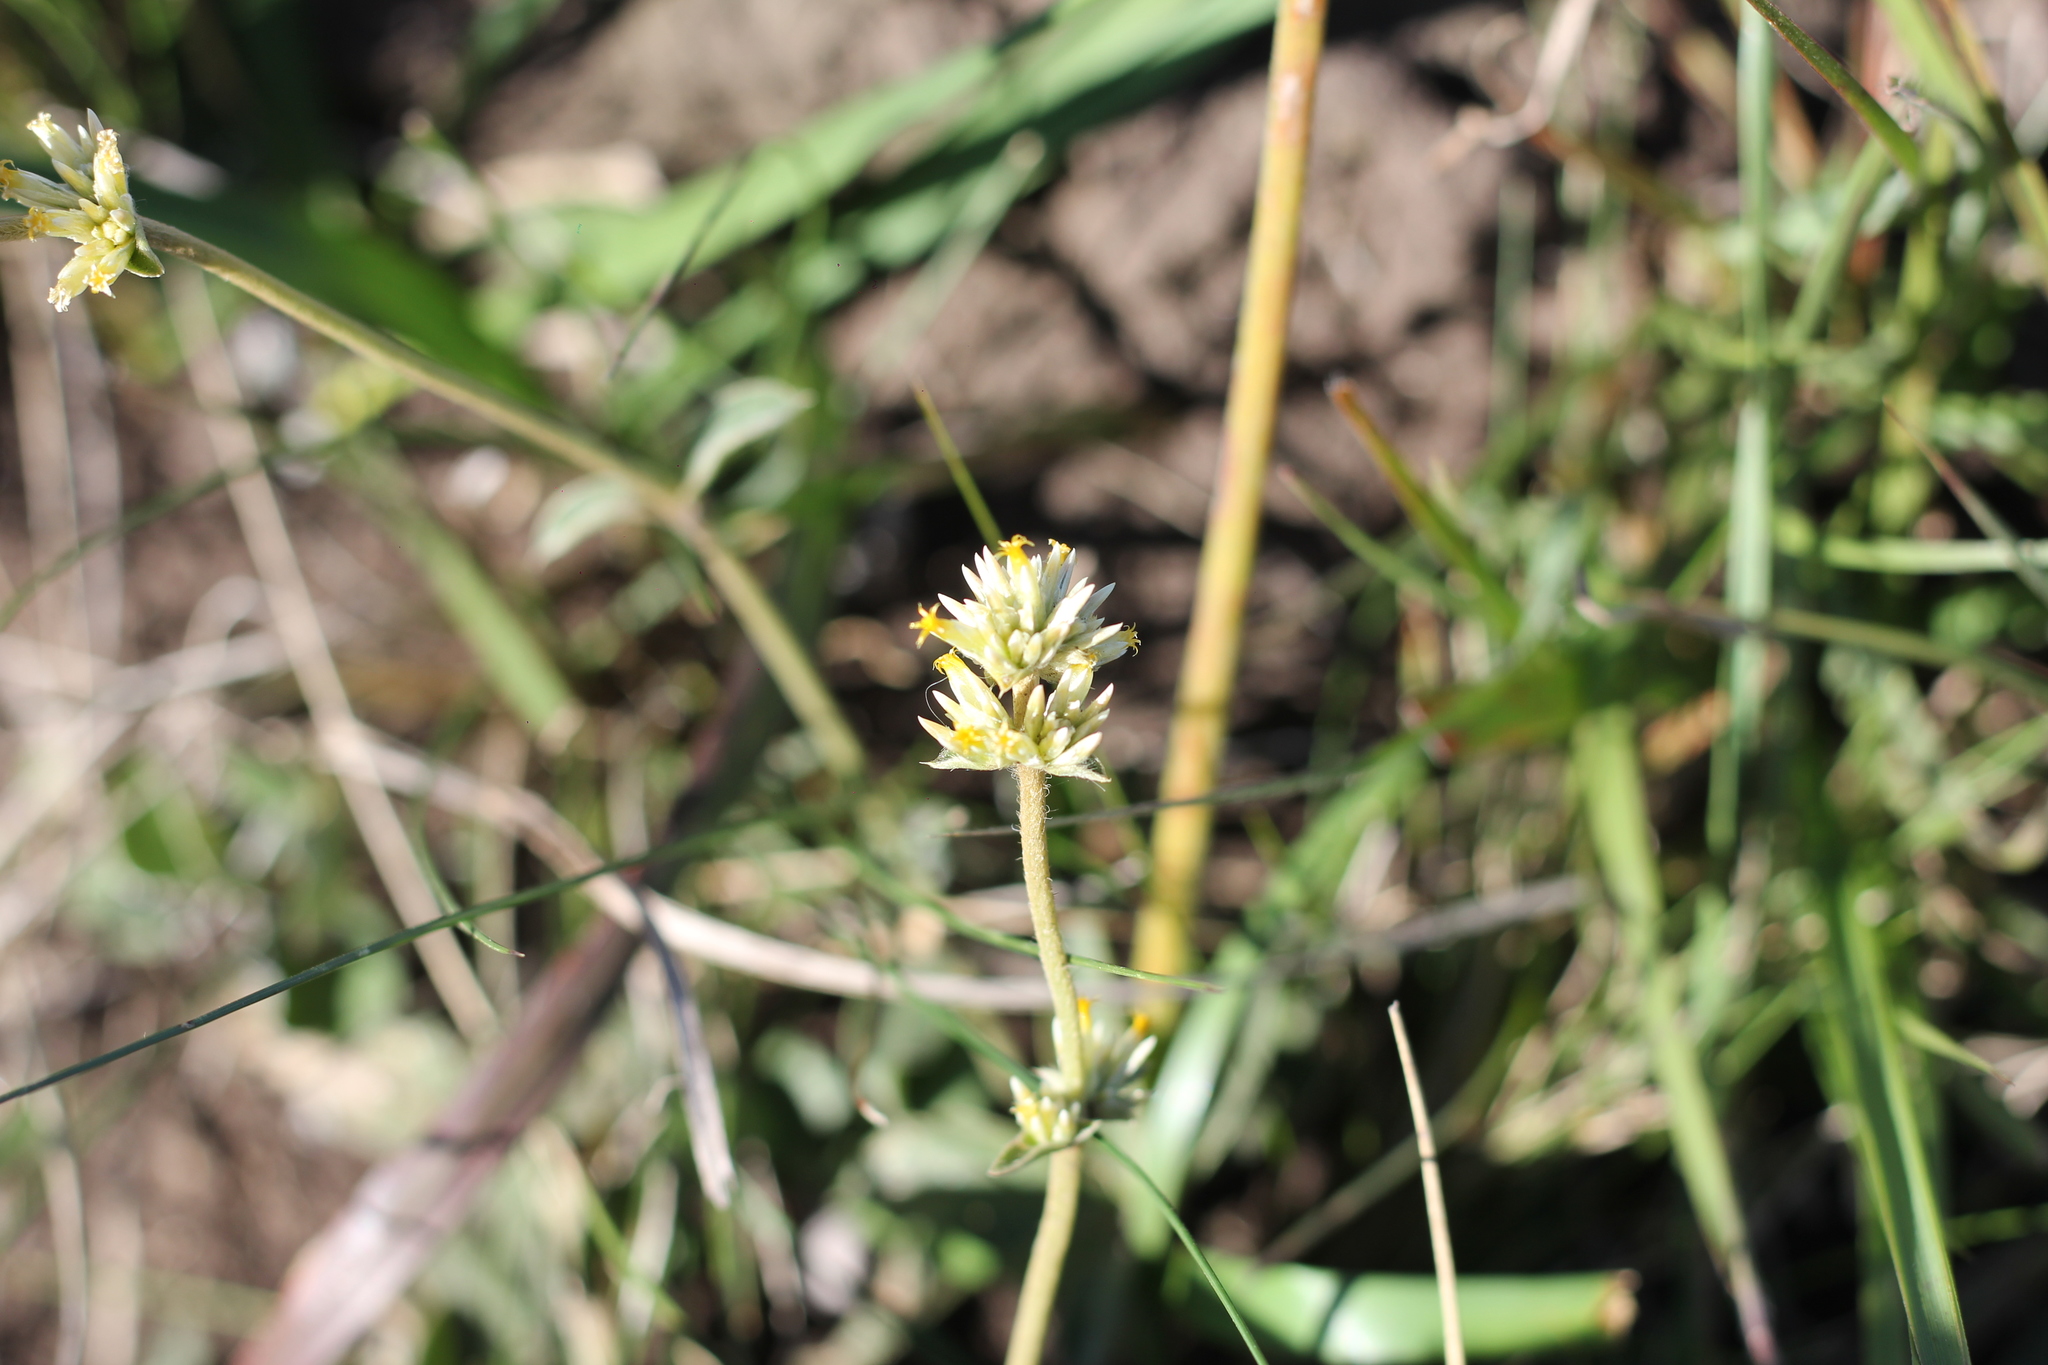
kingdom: Plantae
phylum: Tracheophyta
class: Magnoliopsida
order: Caryophyllales
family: Amaranthaceae
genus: Gomphrena
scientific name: Gomphrena perennis
